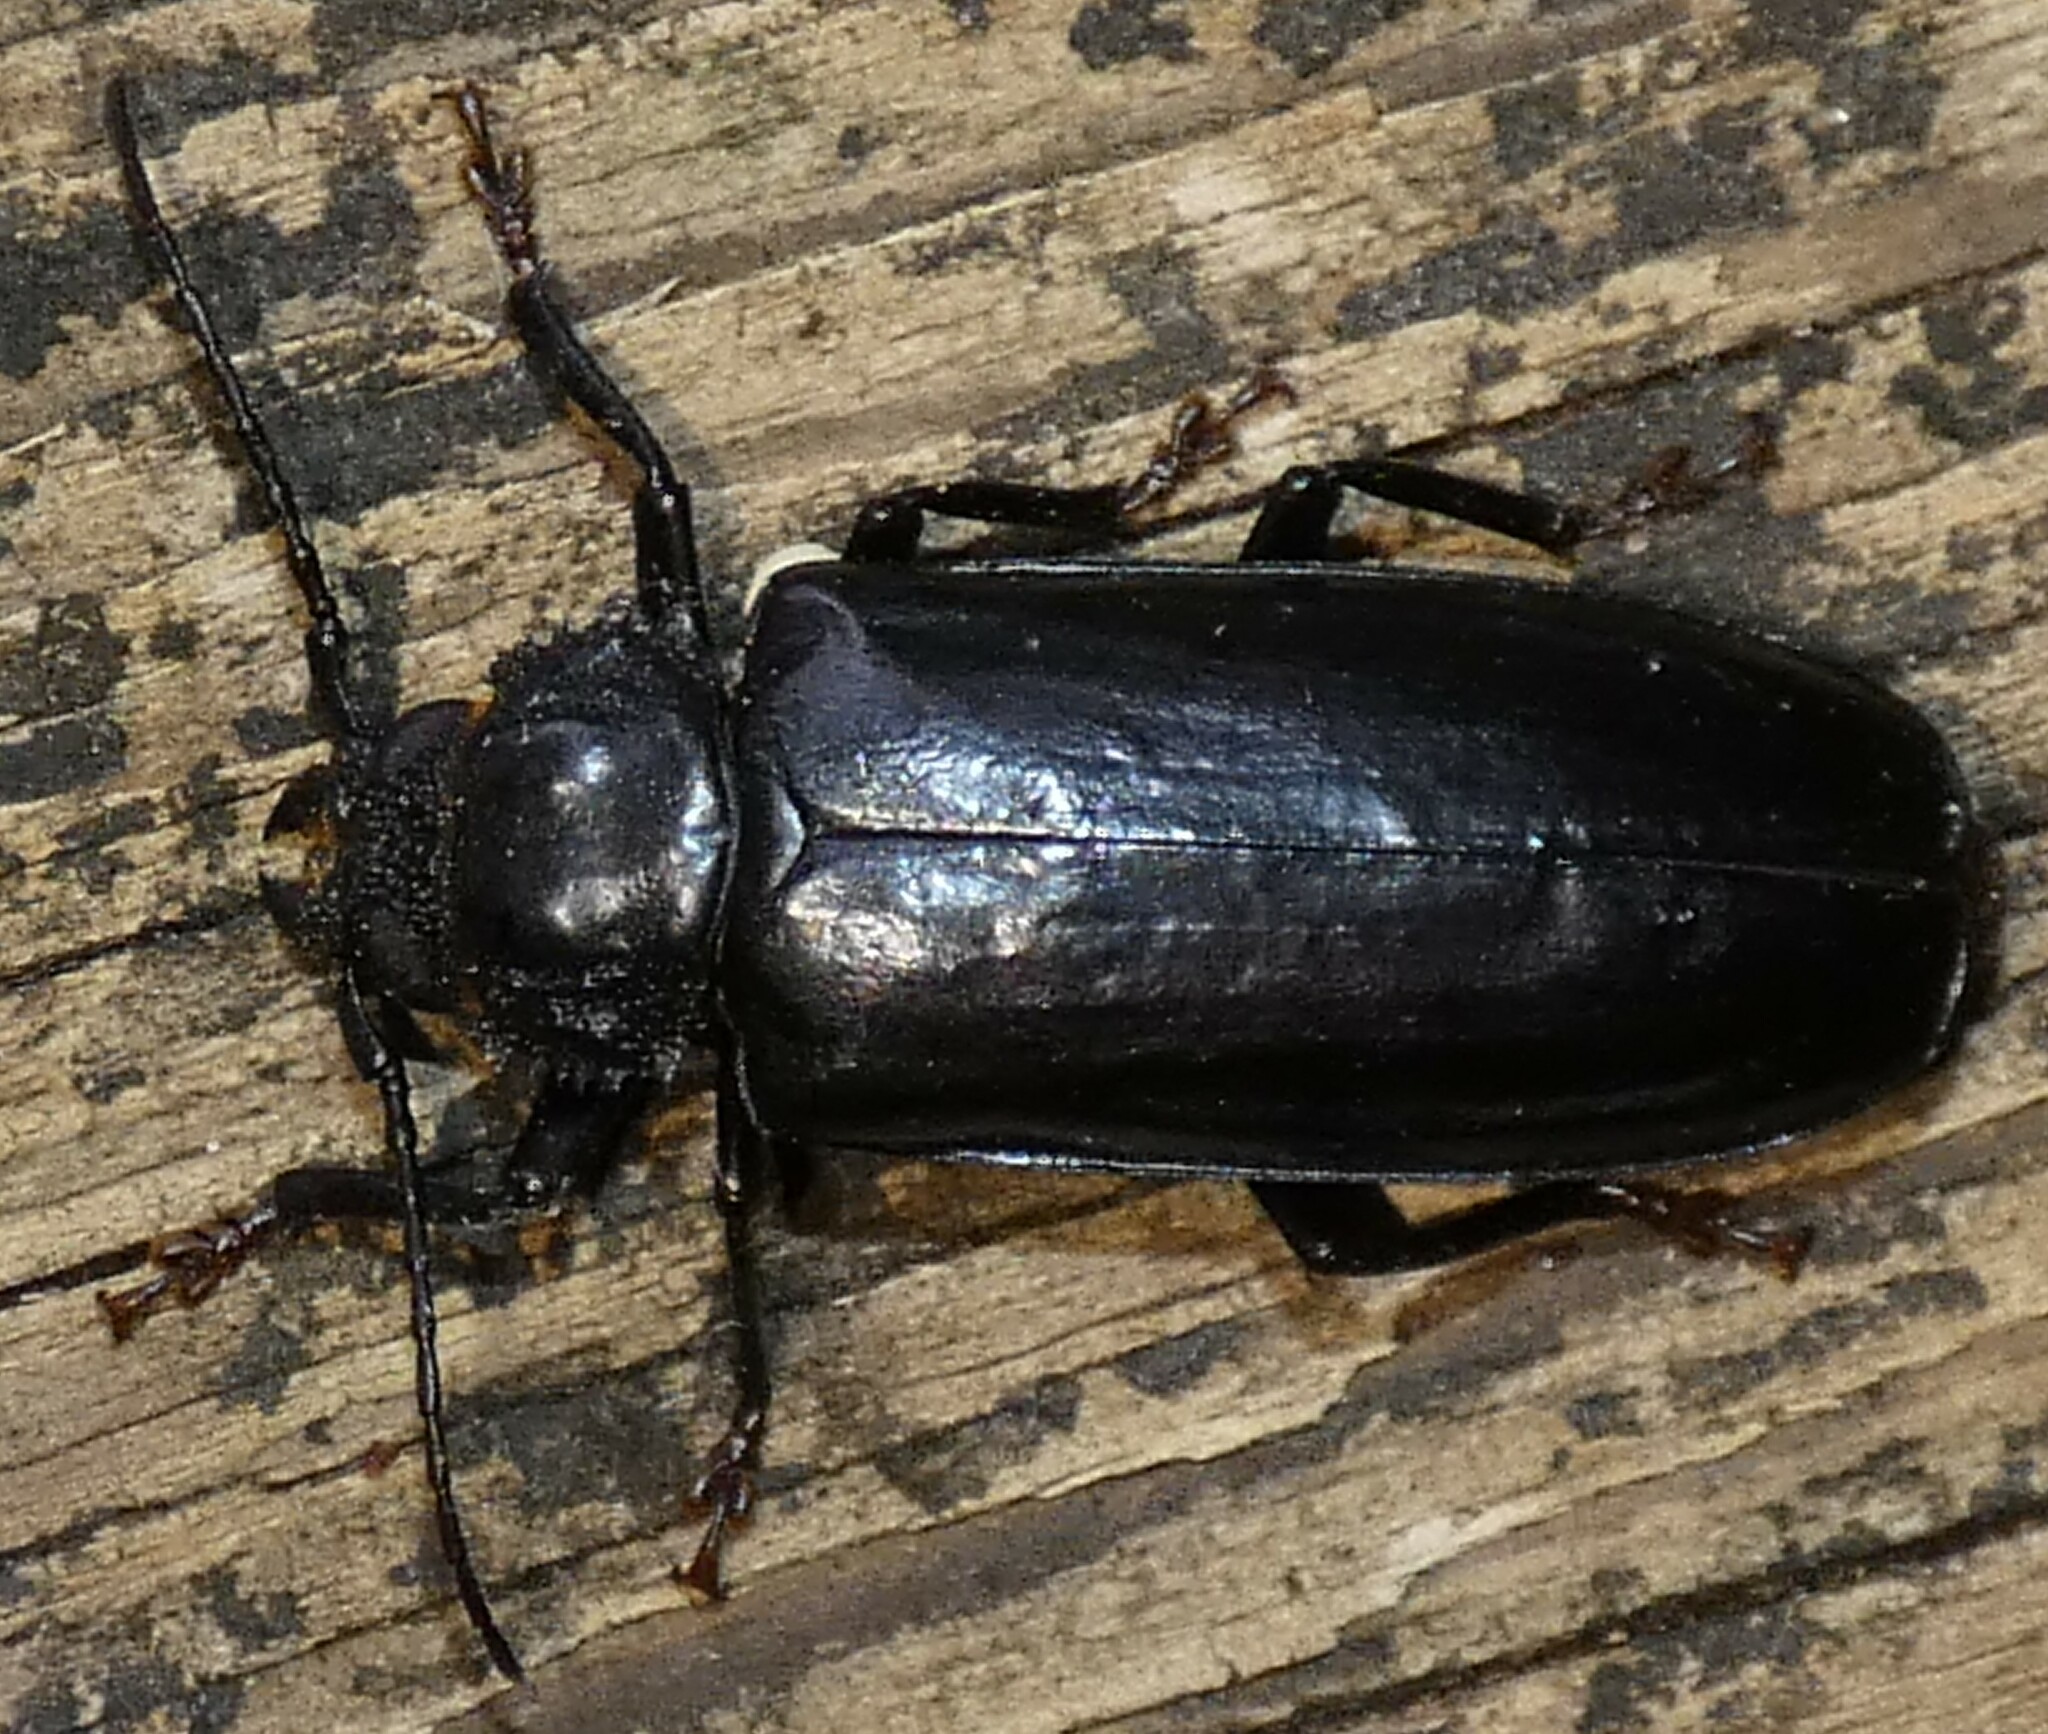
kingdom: Animalia
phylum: Arthropoda
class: Insecta
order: Coleoptera
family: Cerambycidae
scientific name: Cerambycidae
